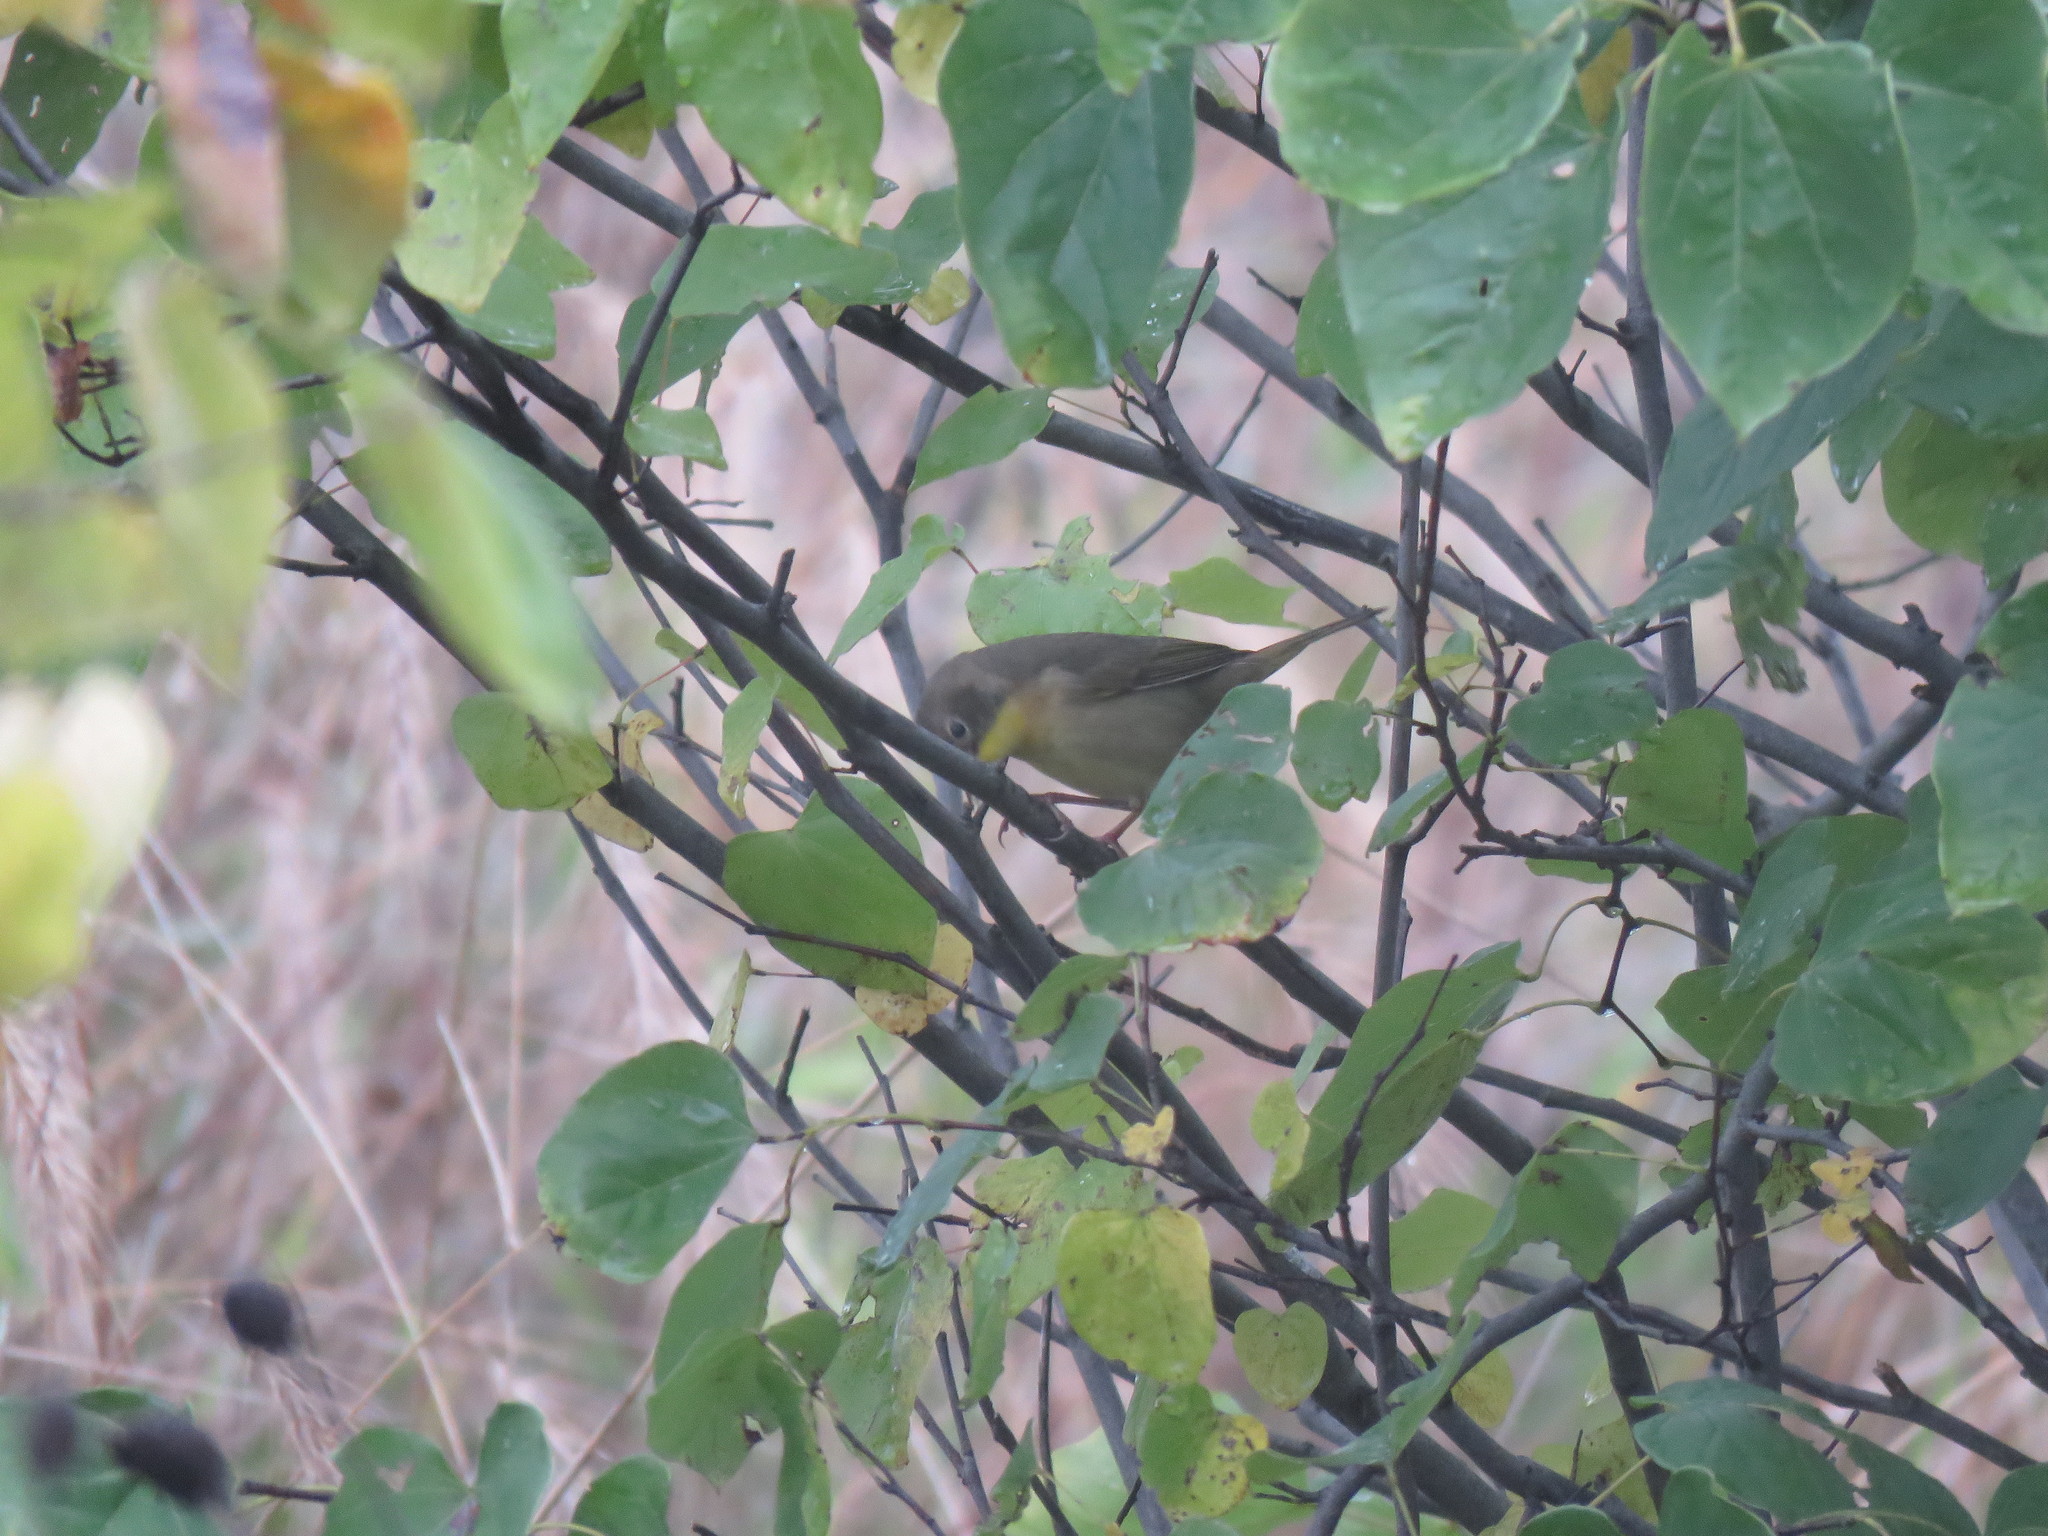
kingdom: Animalia
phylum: Chordata
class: Aves
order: Passeriformes
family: Parulidae
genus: Geothlypis
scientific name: Geothlypis trichas
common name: Common yellowthroat
